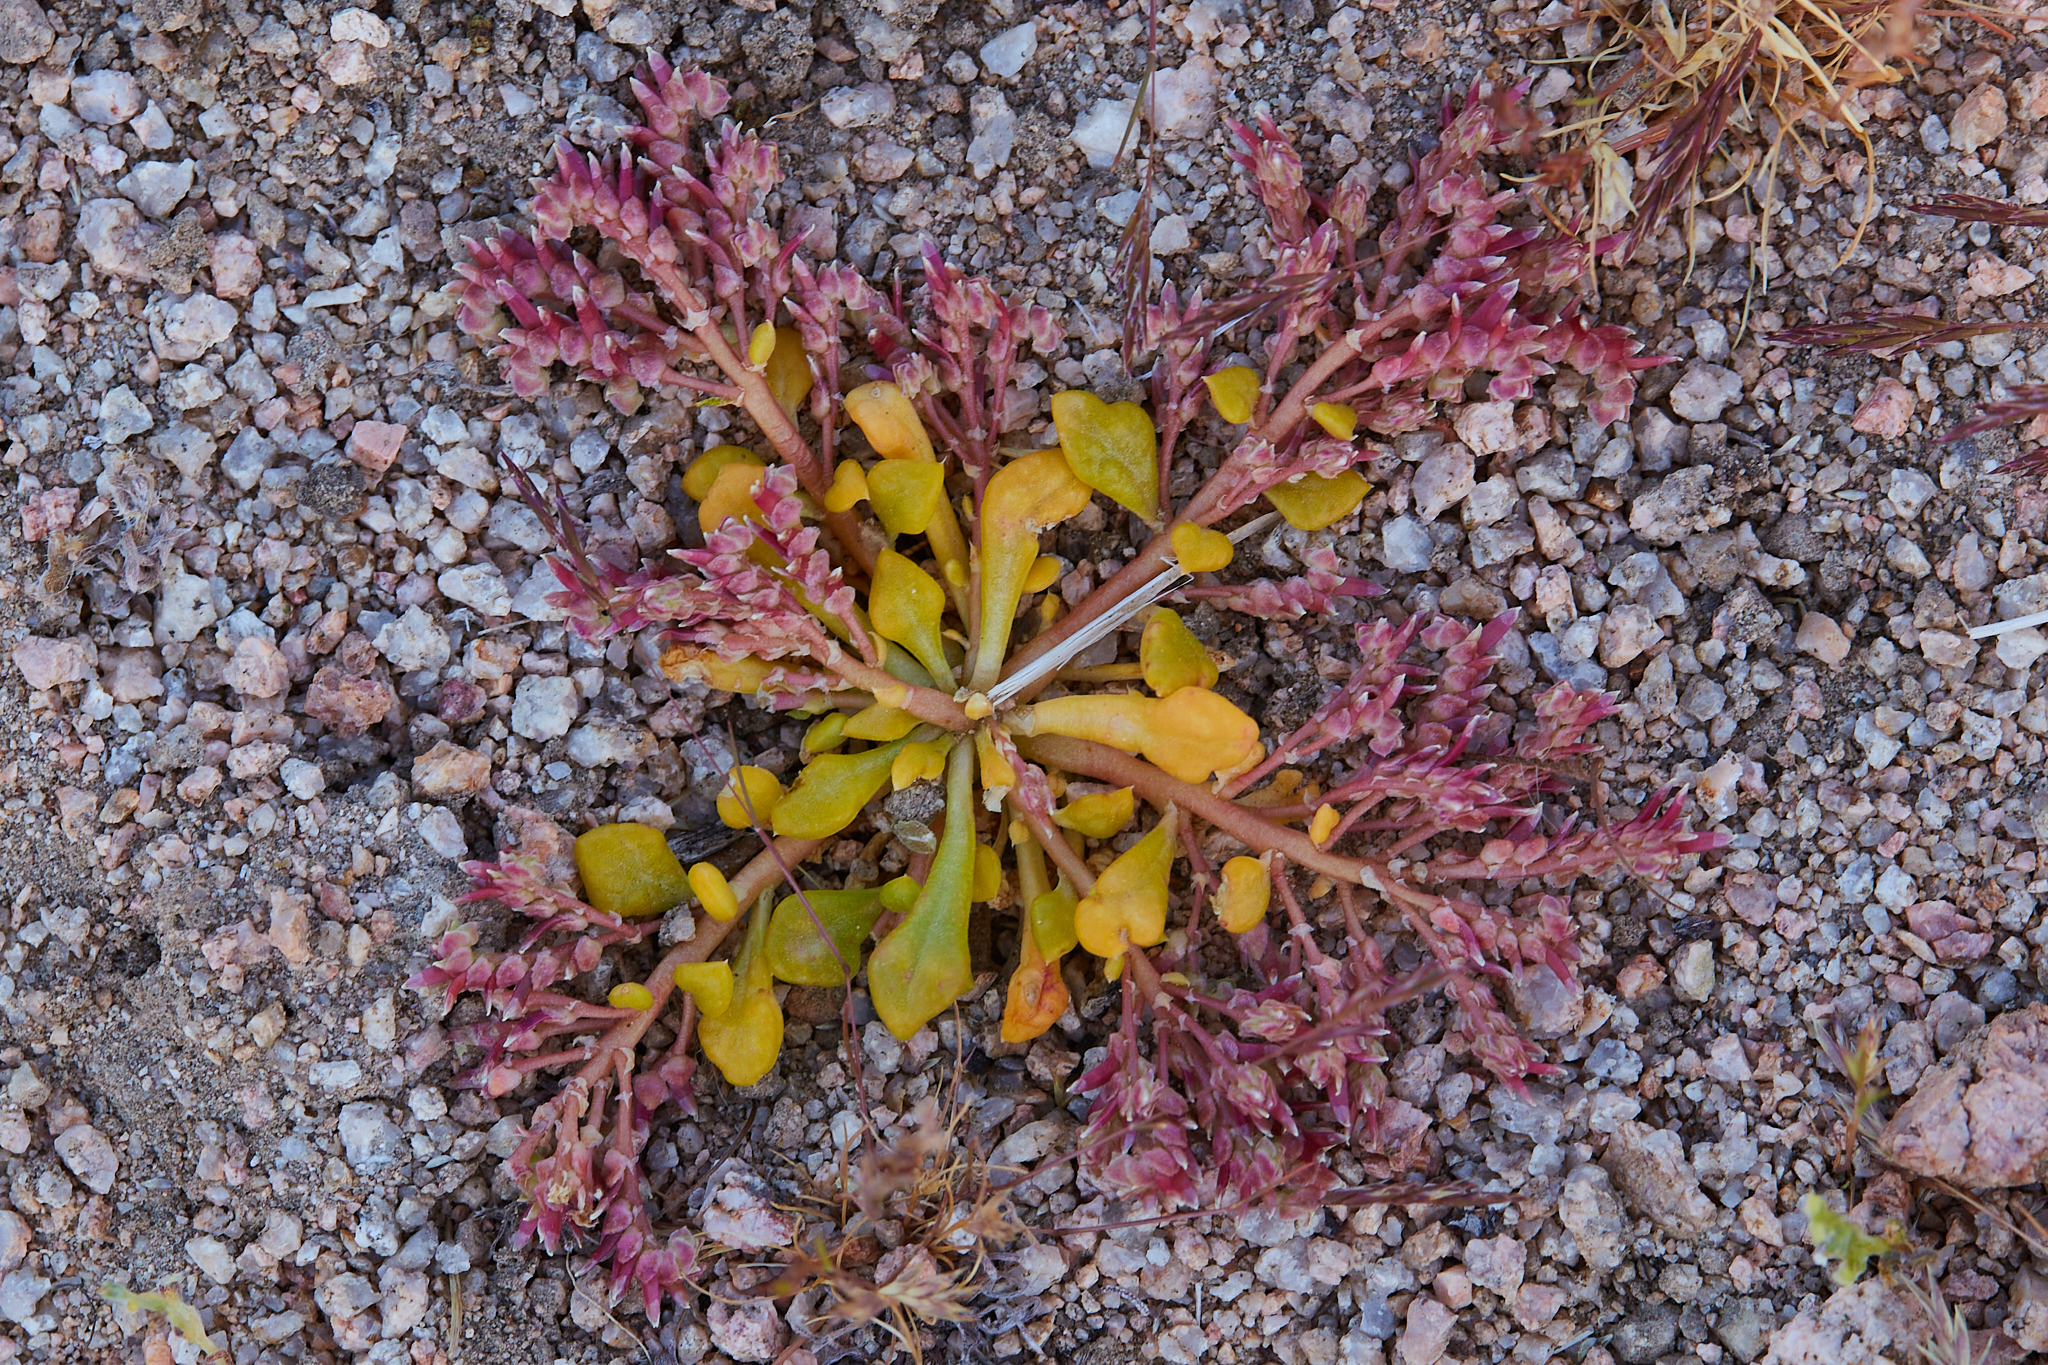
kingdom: Plantae
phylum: Tracheophyta
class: Magnoliopsida
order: Caryophyllales
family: Montiaceae
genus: Calyptridium
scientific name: Calyptridium monandrum
